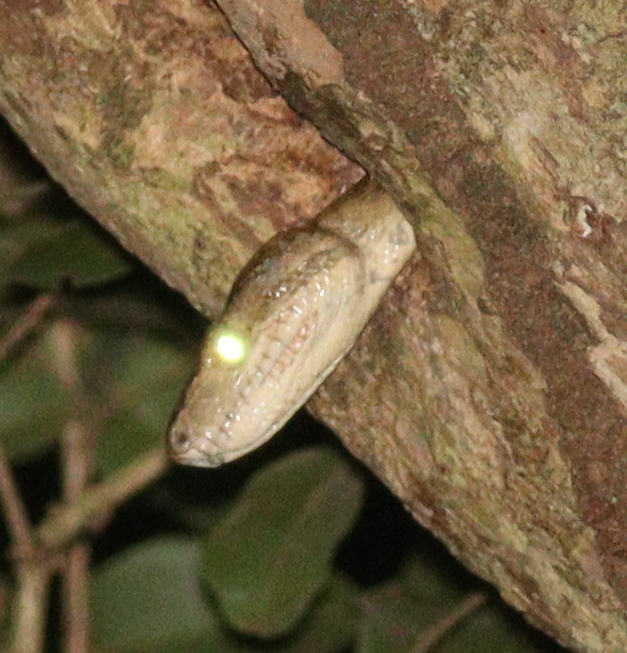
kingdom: Animalia
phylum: Chordata
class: Squamata
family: Boidae
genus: Corallus
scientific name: Corallus hortulana
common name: Garden tree boa
